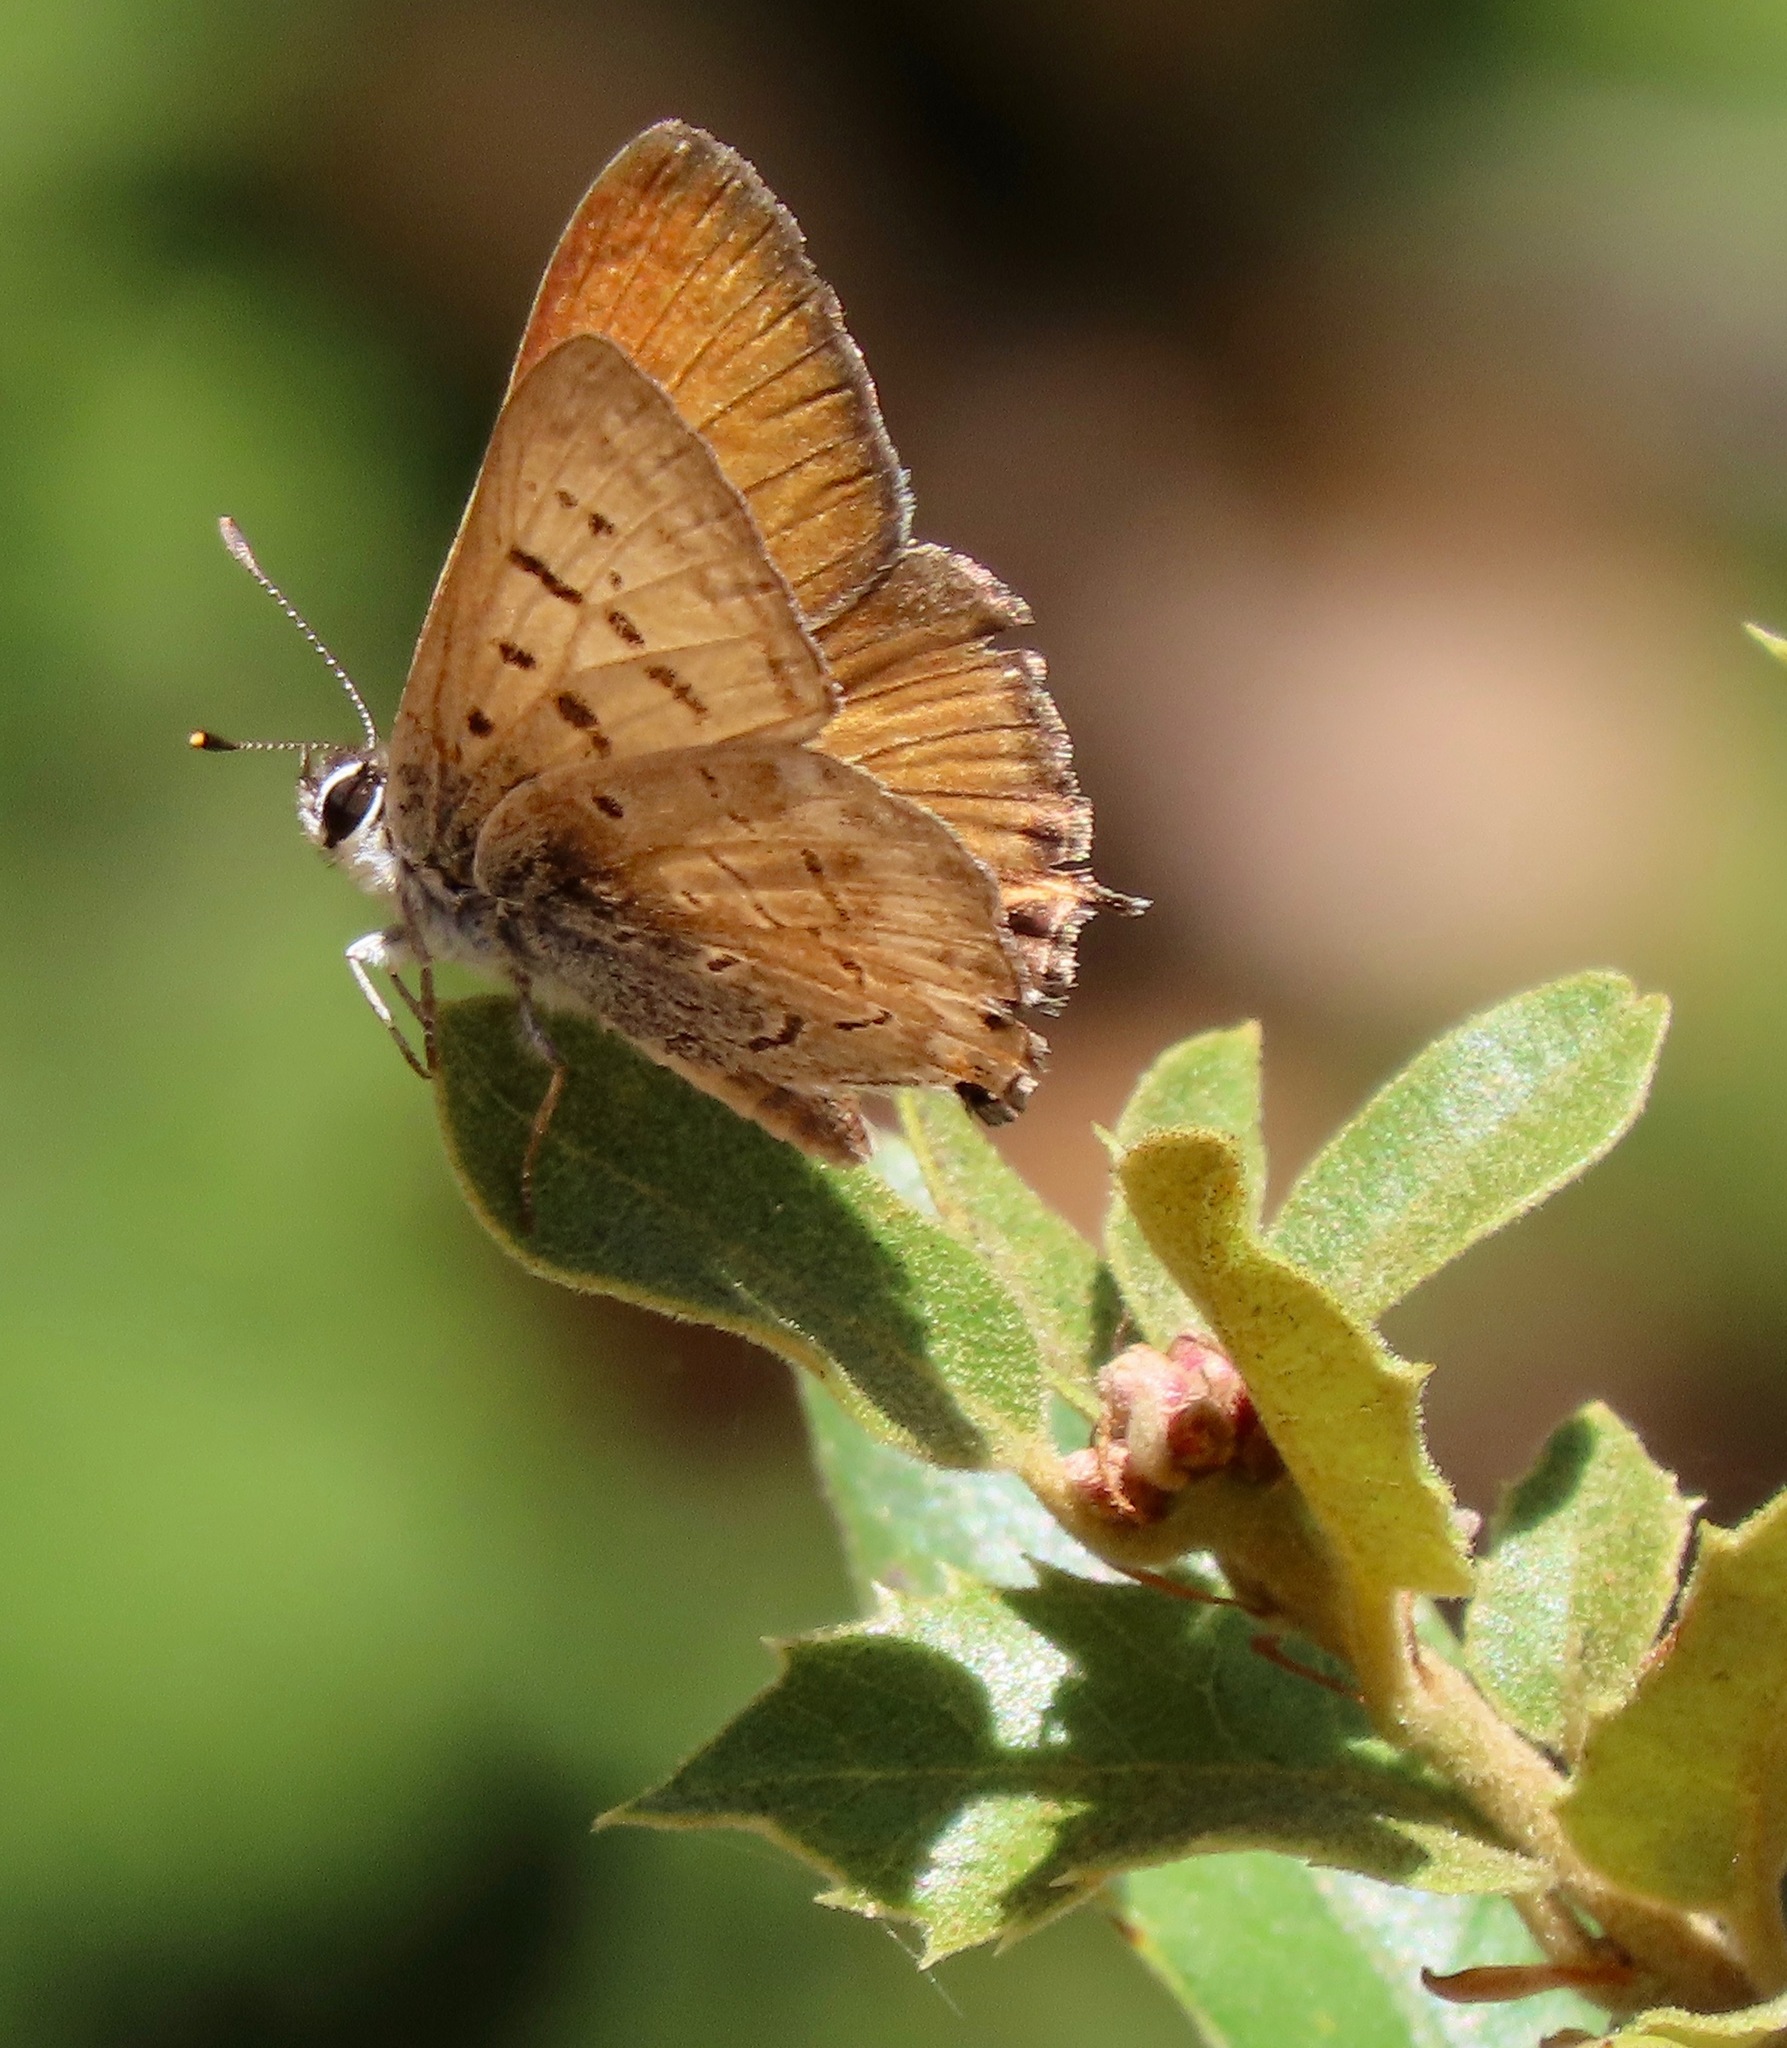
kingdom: Animalia
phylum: Arthropoda
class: Insecta
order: Lepidoptera
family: Lycaenidae
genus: Tharsalea
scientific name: Tharsalea arota
